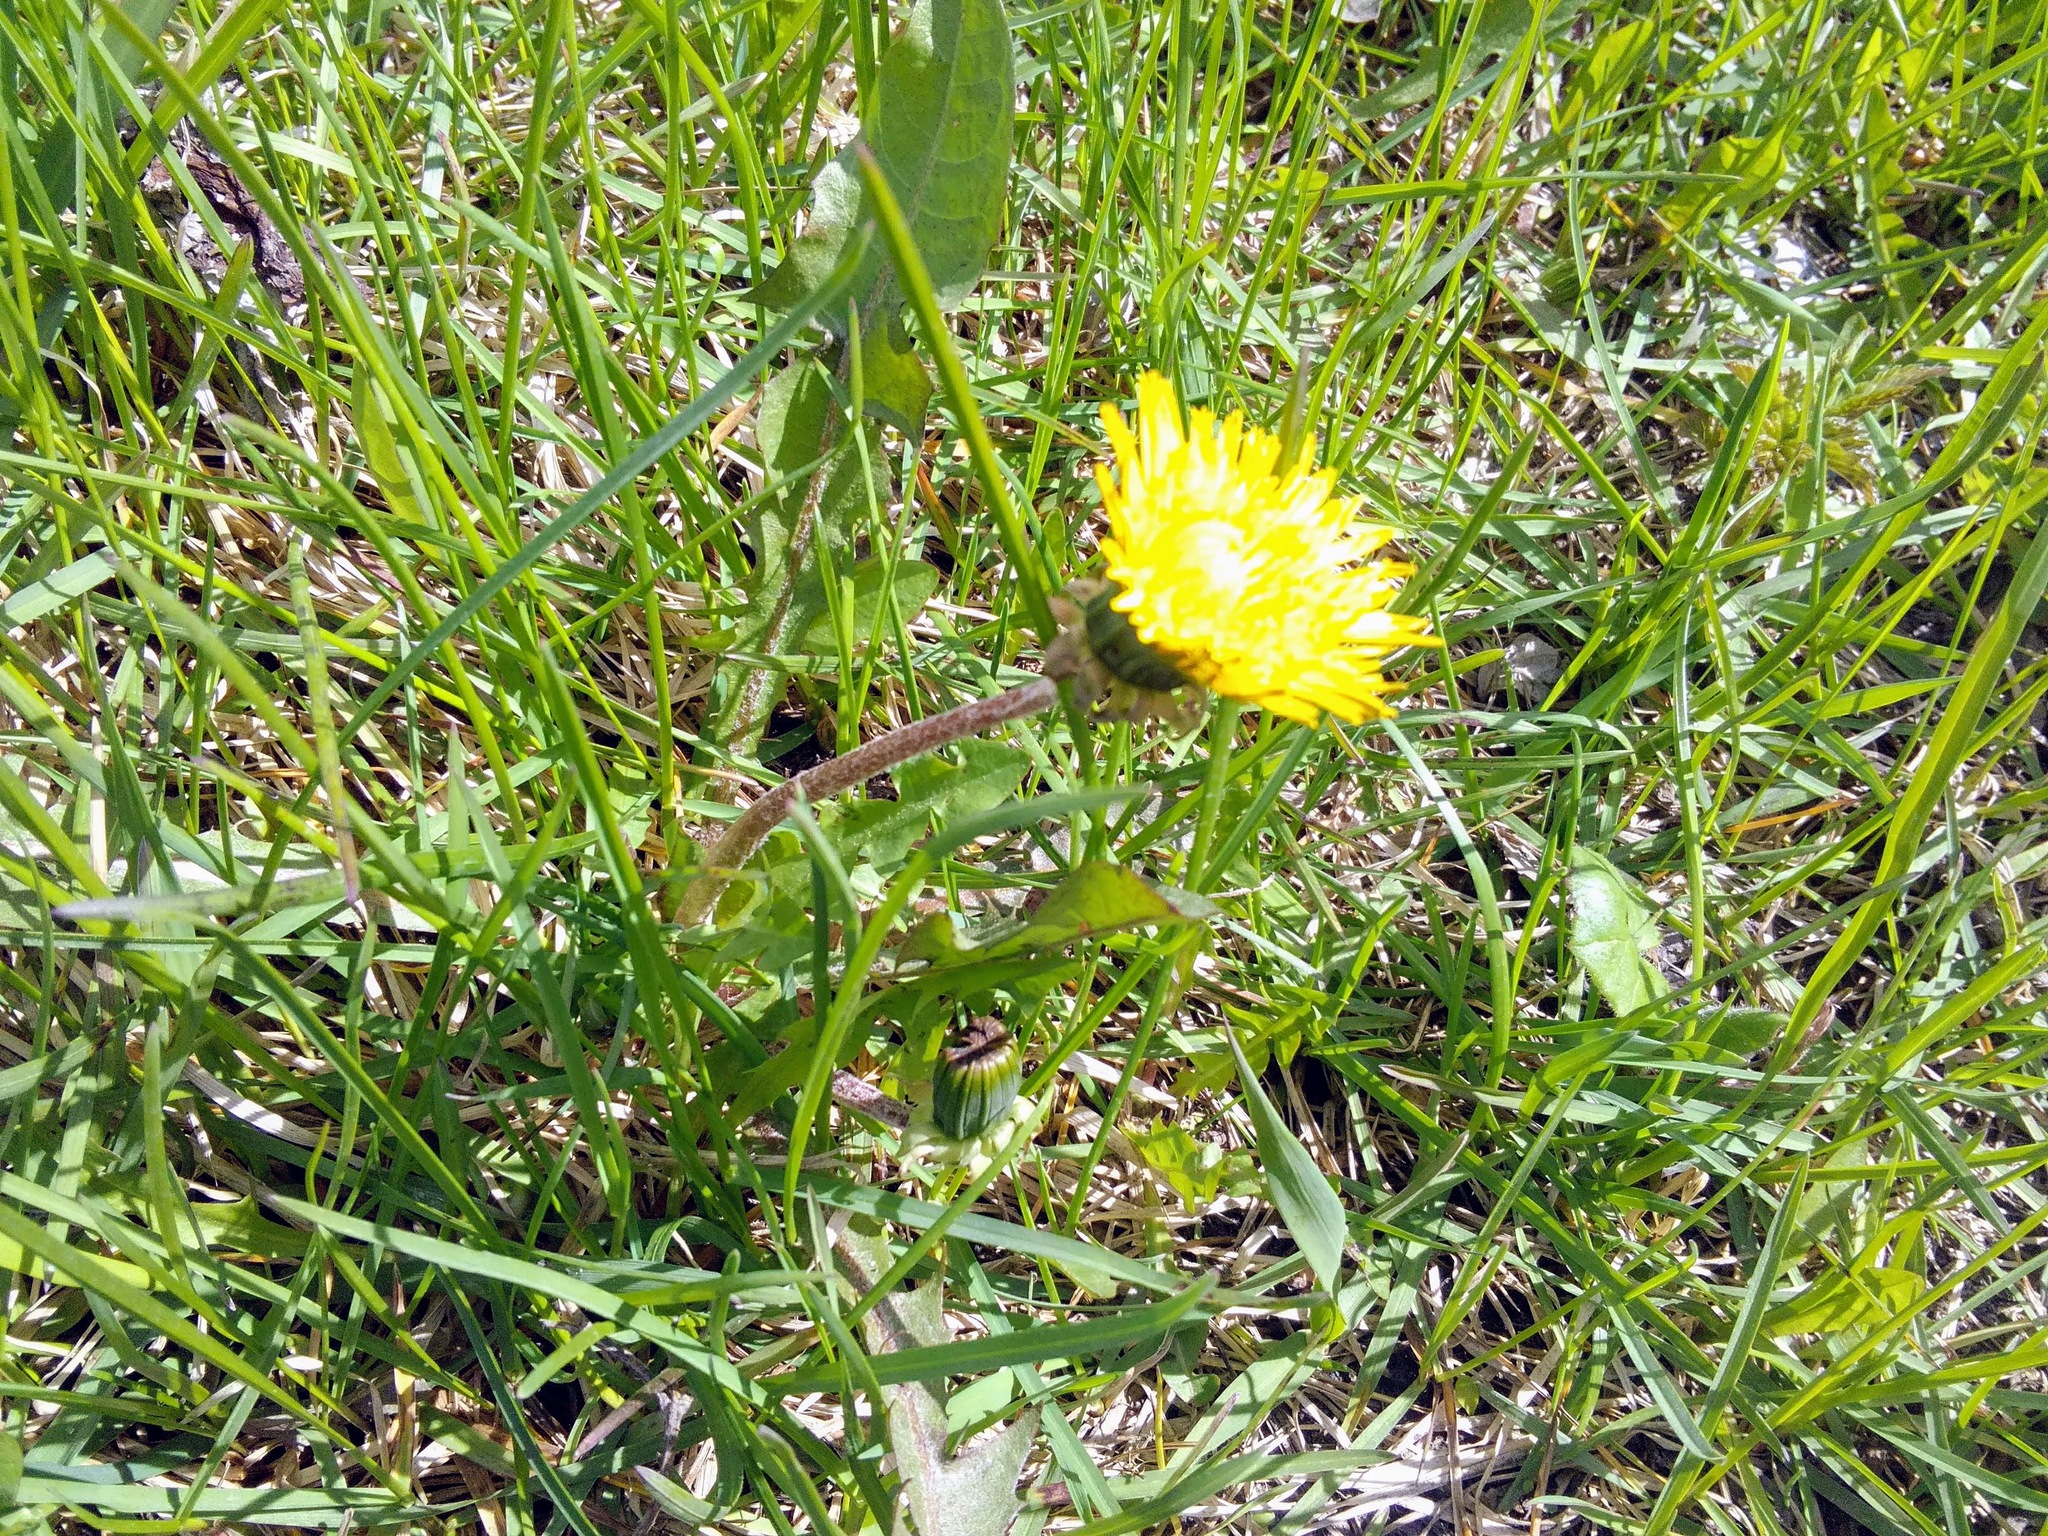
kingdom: Plantae
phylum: Tracheophyta
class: Magnoliopsida
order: Asterales
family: Asteraceae
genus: Taraxacum
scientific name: Taraxacum officinale
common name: Common dandelion
